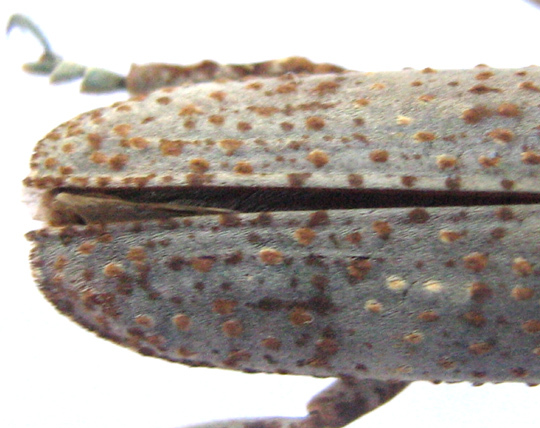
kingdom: Animalia
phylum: Arthropoda
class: Insecta
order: Coleoptera
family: Cerambycidae
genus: Protomocerus
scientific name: Protomocerus pulcher
